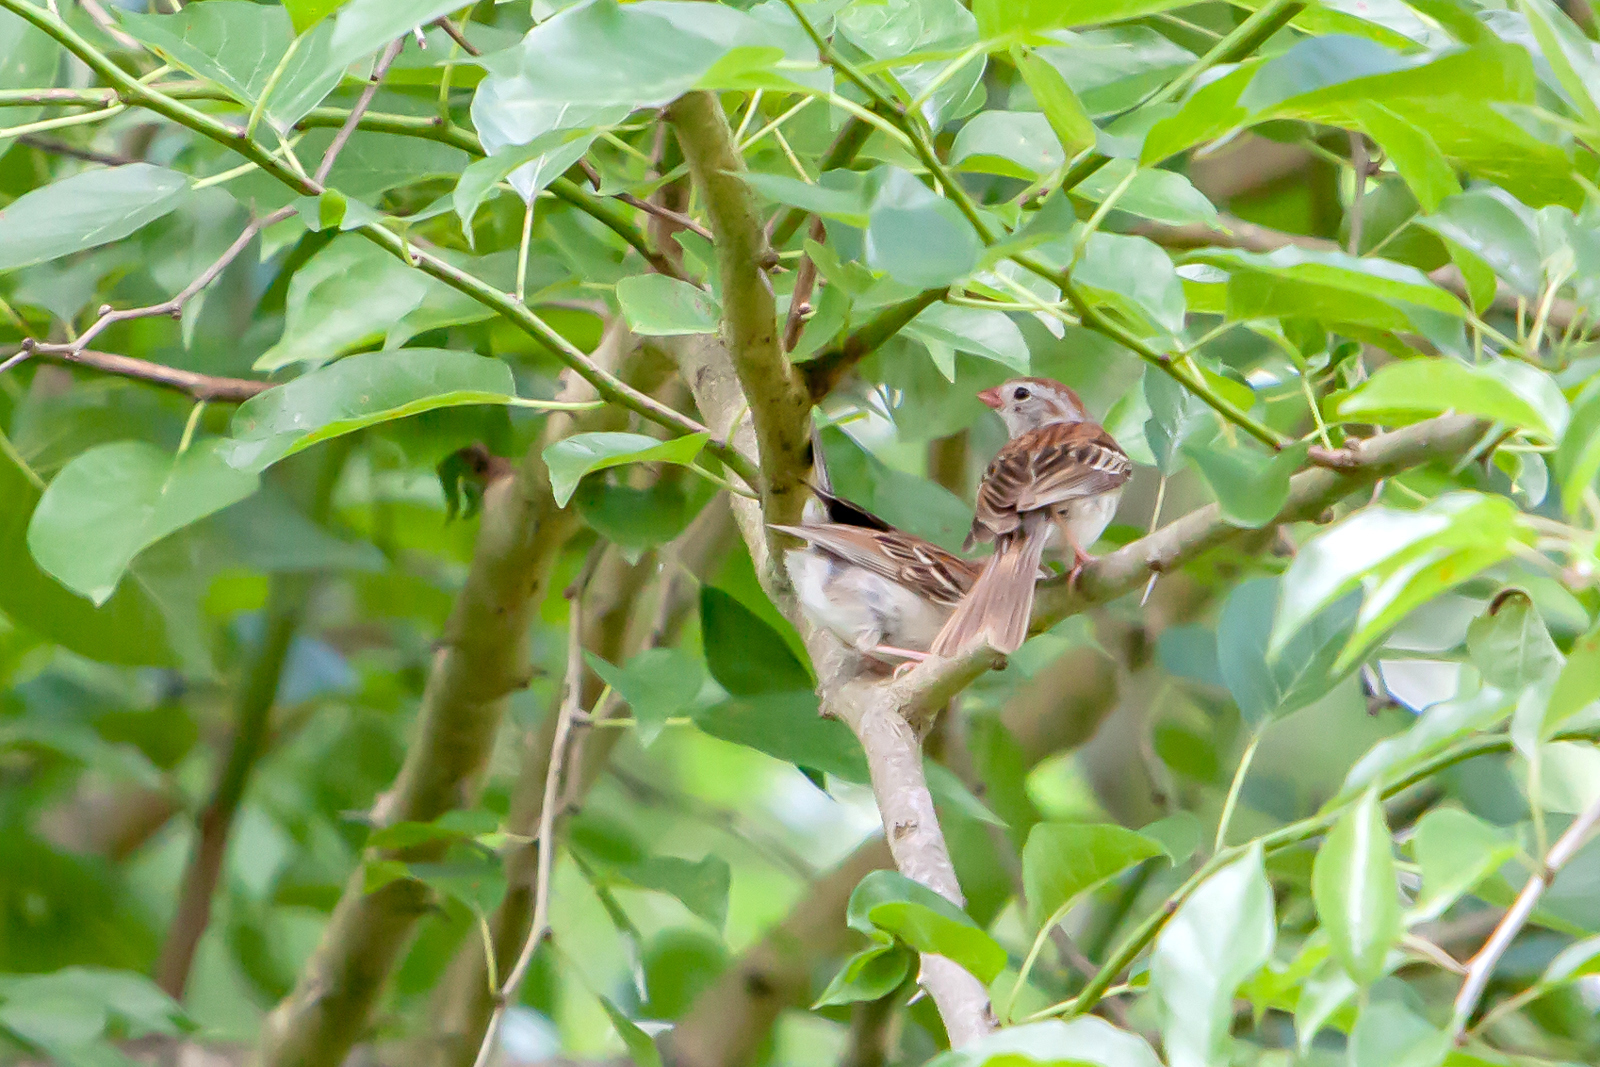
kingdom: Animalia
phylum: Chordata
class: Aves
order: Passeriformes
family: Passerellidae
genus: Spizella
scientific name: Spizella pusilla
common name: Field sparrow
